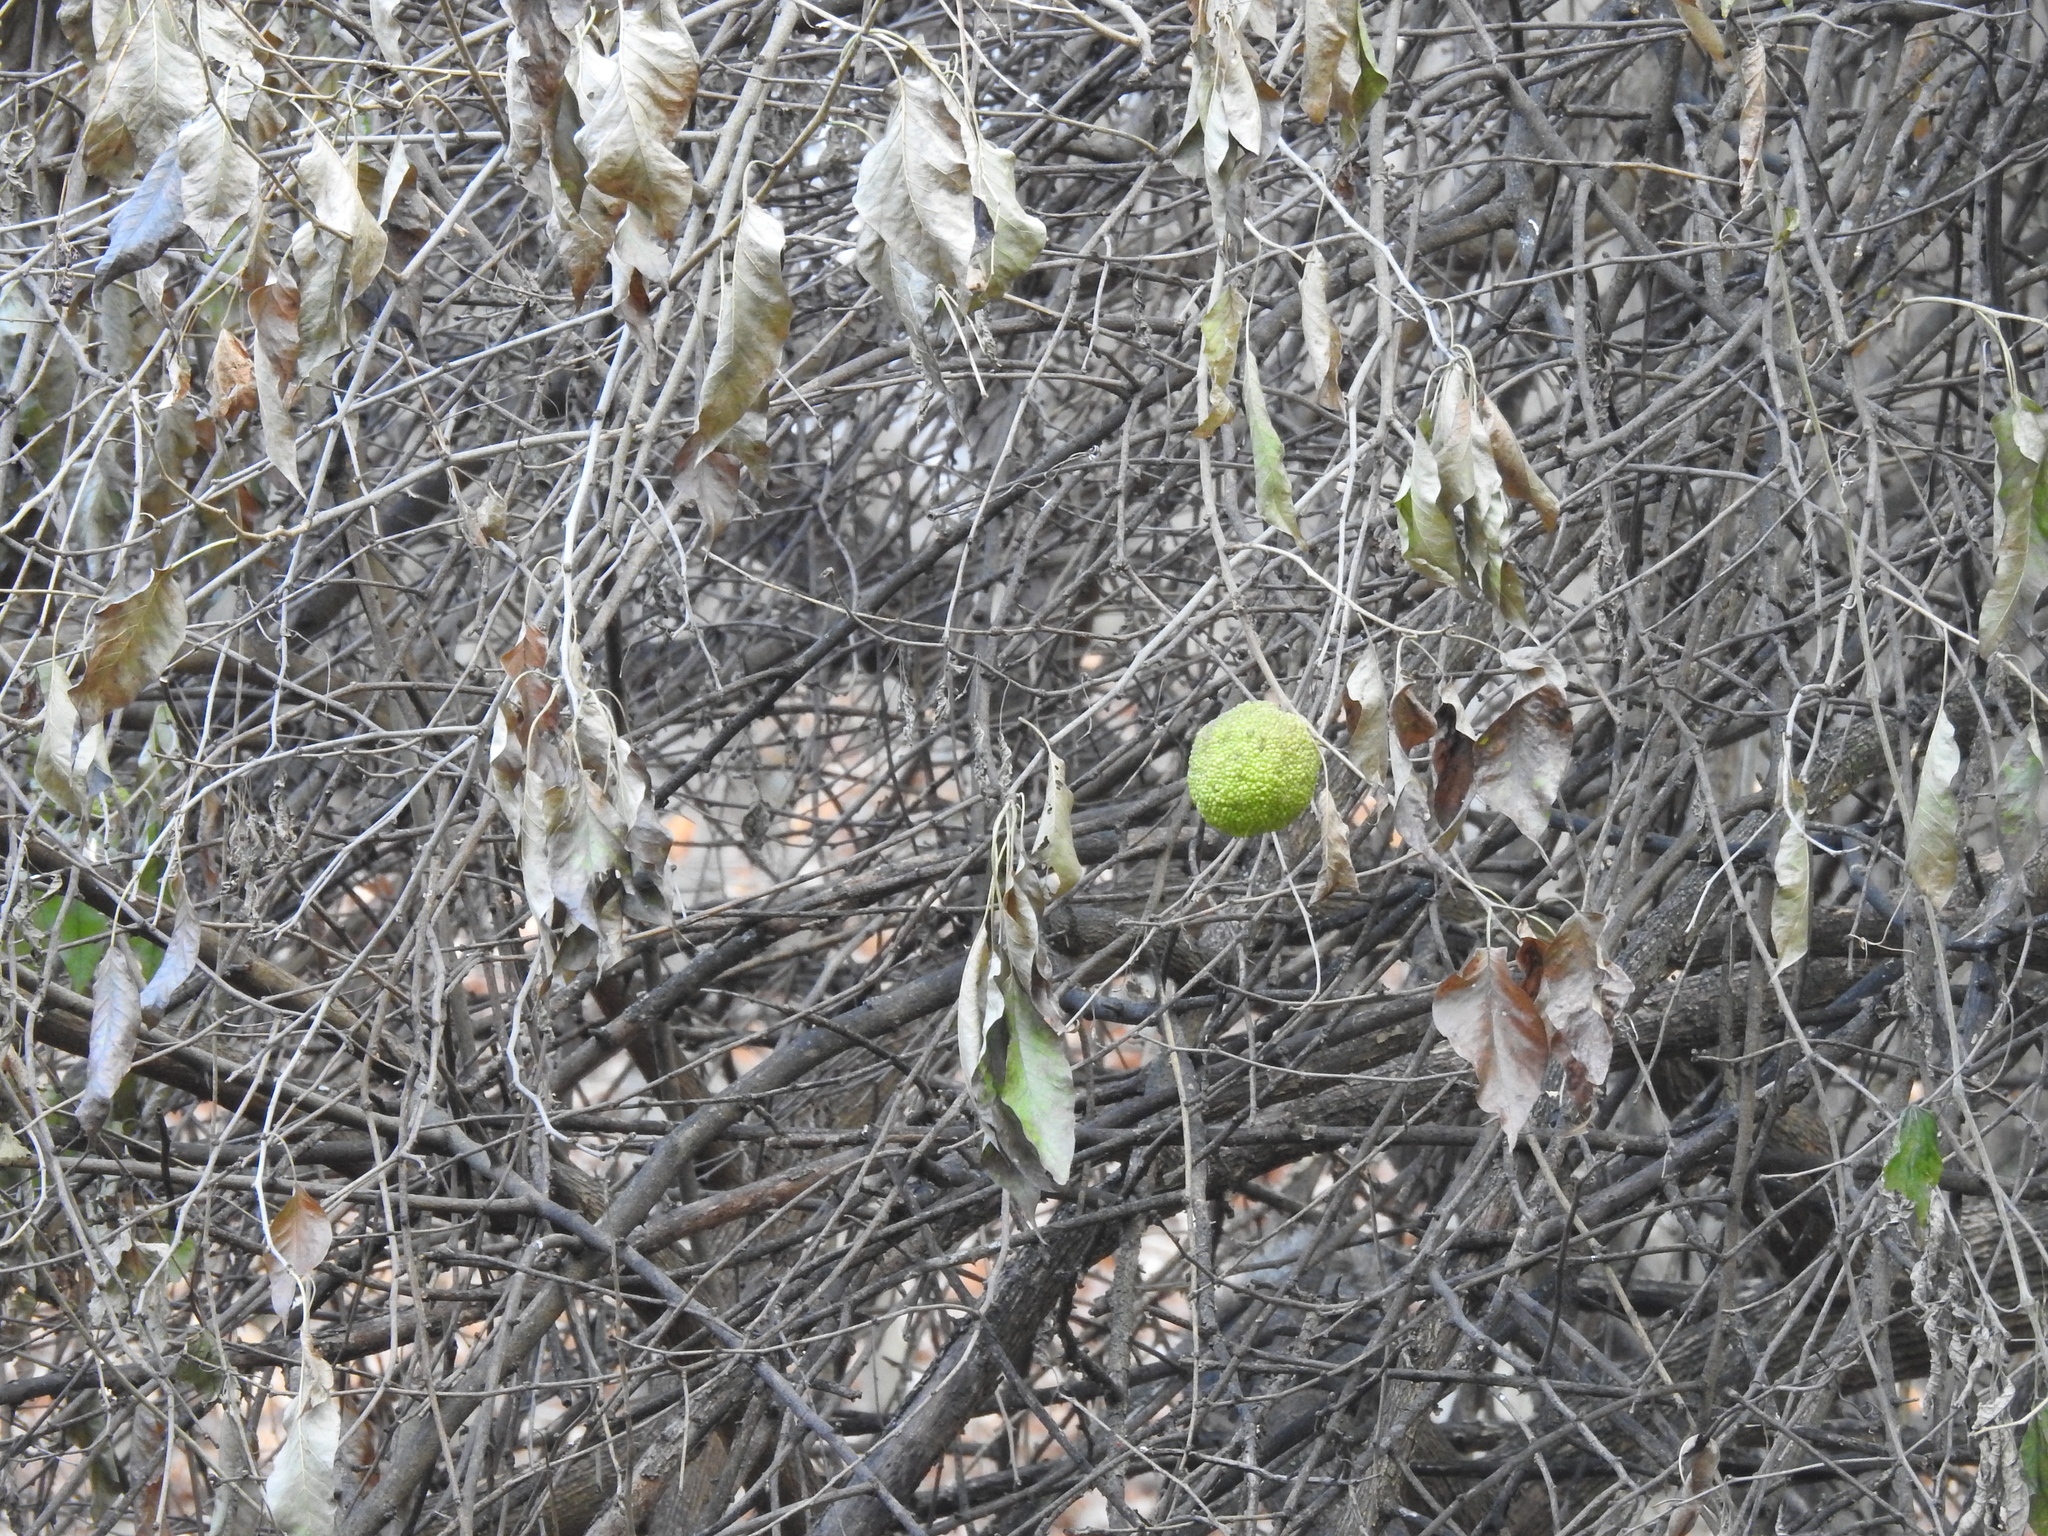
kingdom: Plantae
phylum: Tracheophyta
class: Magnoliopsida
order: Rosales
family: Moraceae
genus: Maclura
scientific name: Maclura pomifera
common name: Osage-orange
